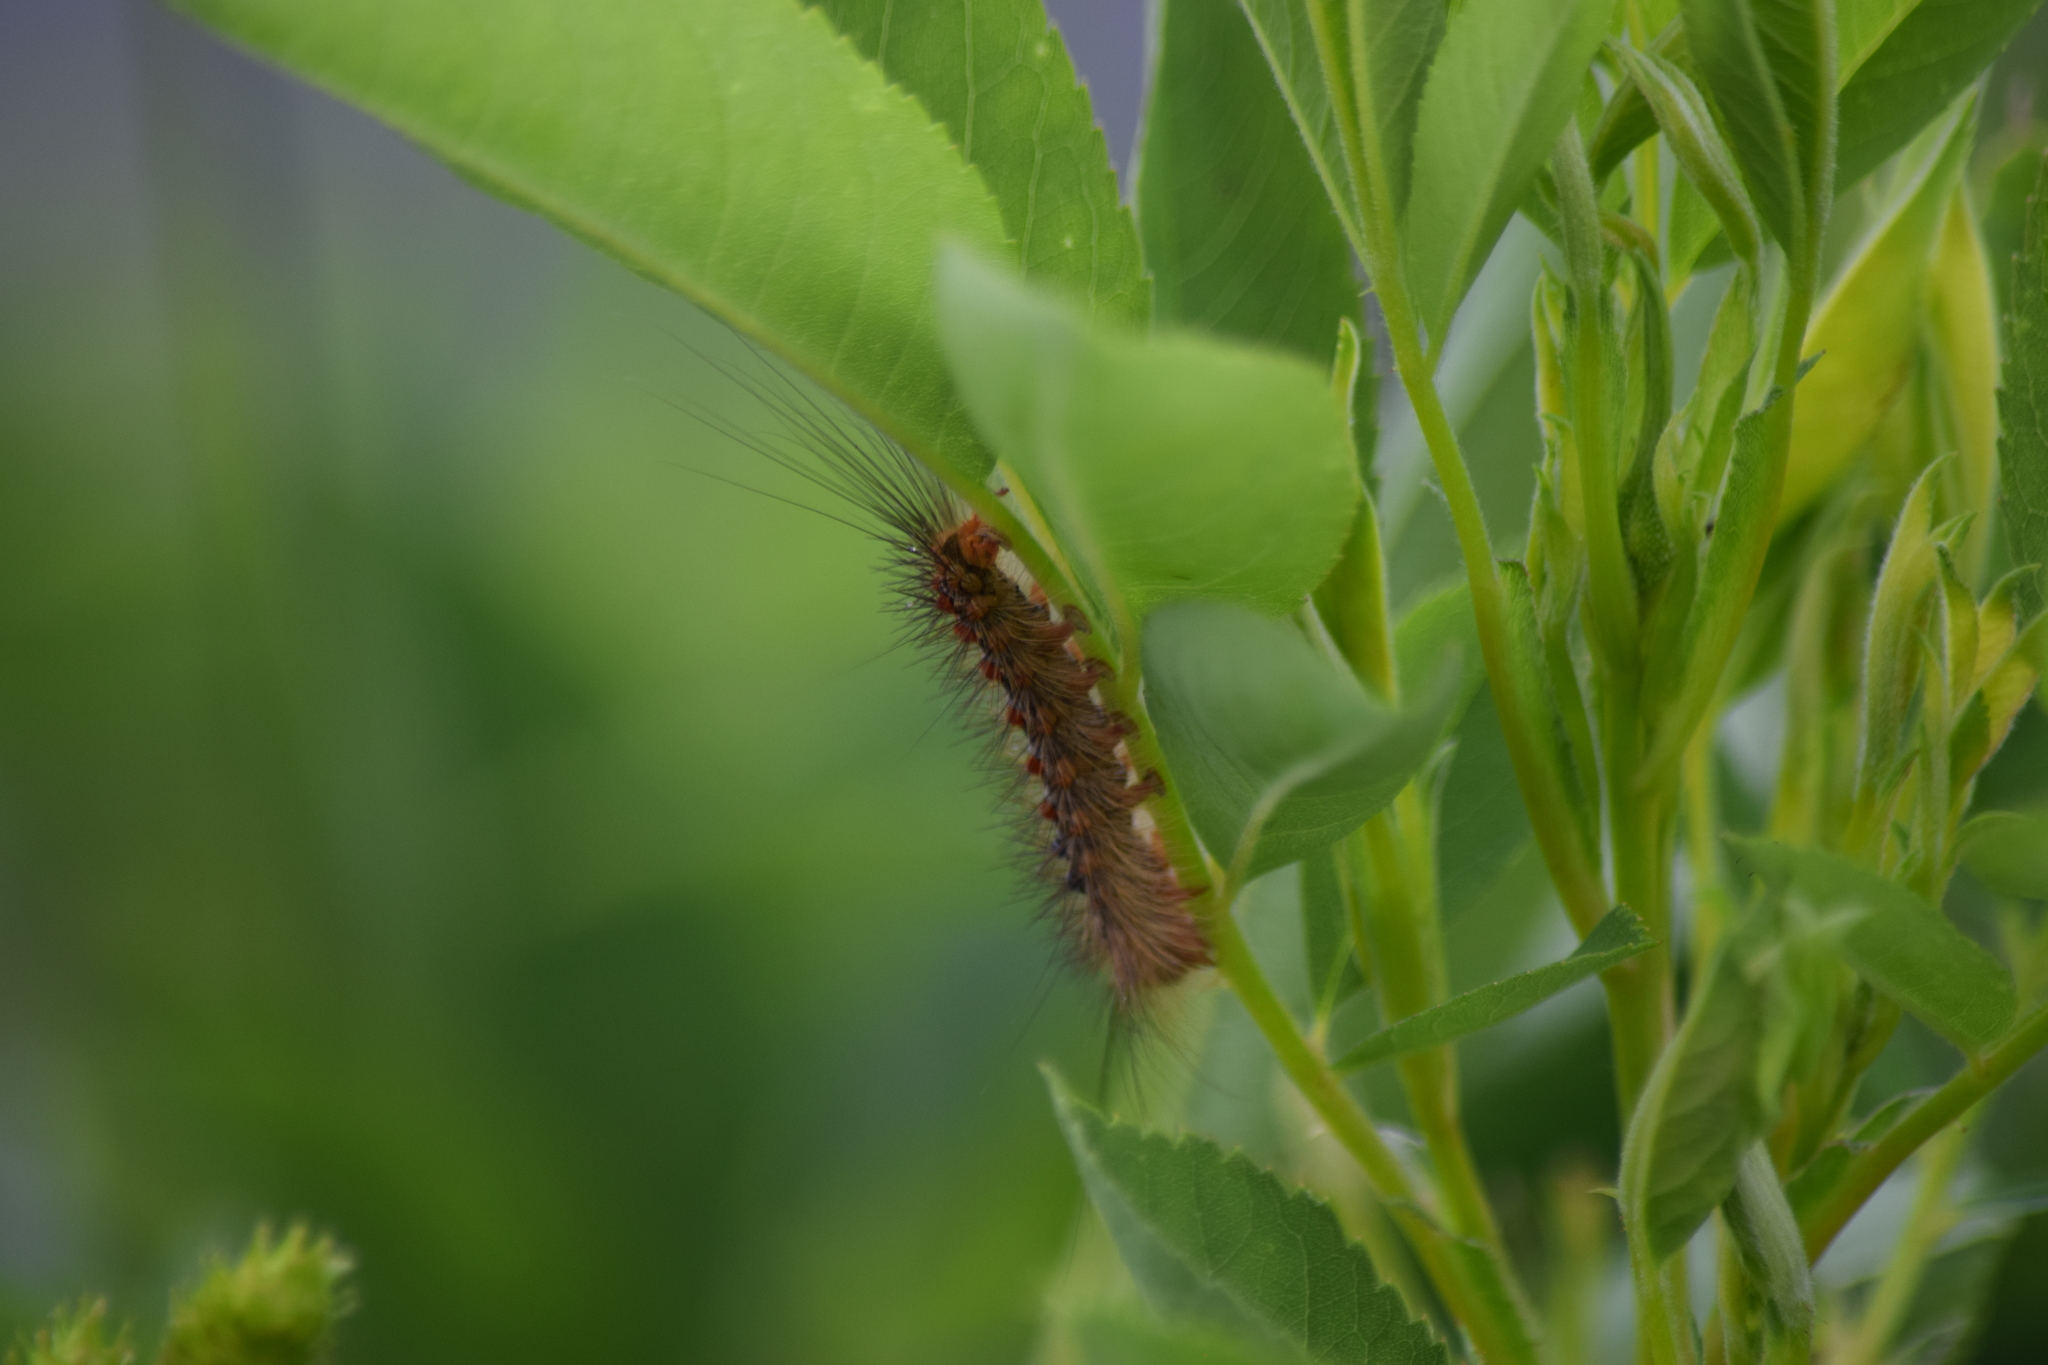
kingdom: Animalia
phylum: Arthropoda
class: Insecta
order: Lepidoptera
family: Erebidae
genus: Lymantria
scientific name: Lymantria dispar
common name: Gypsy moth
